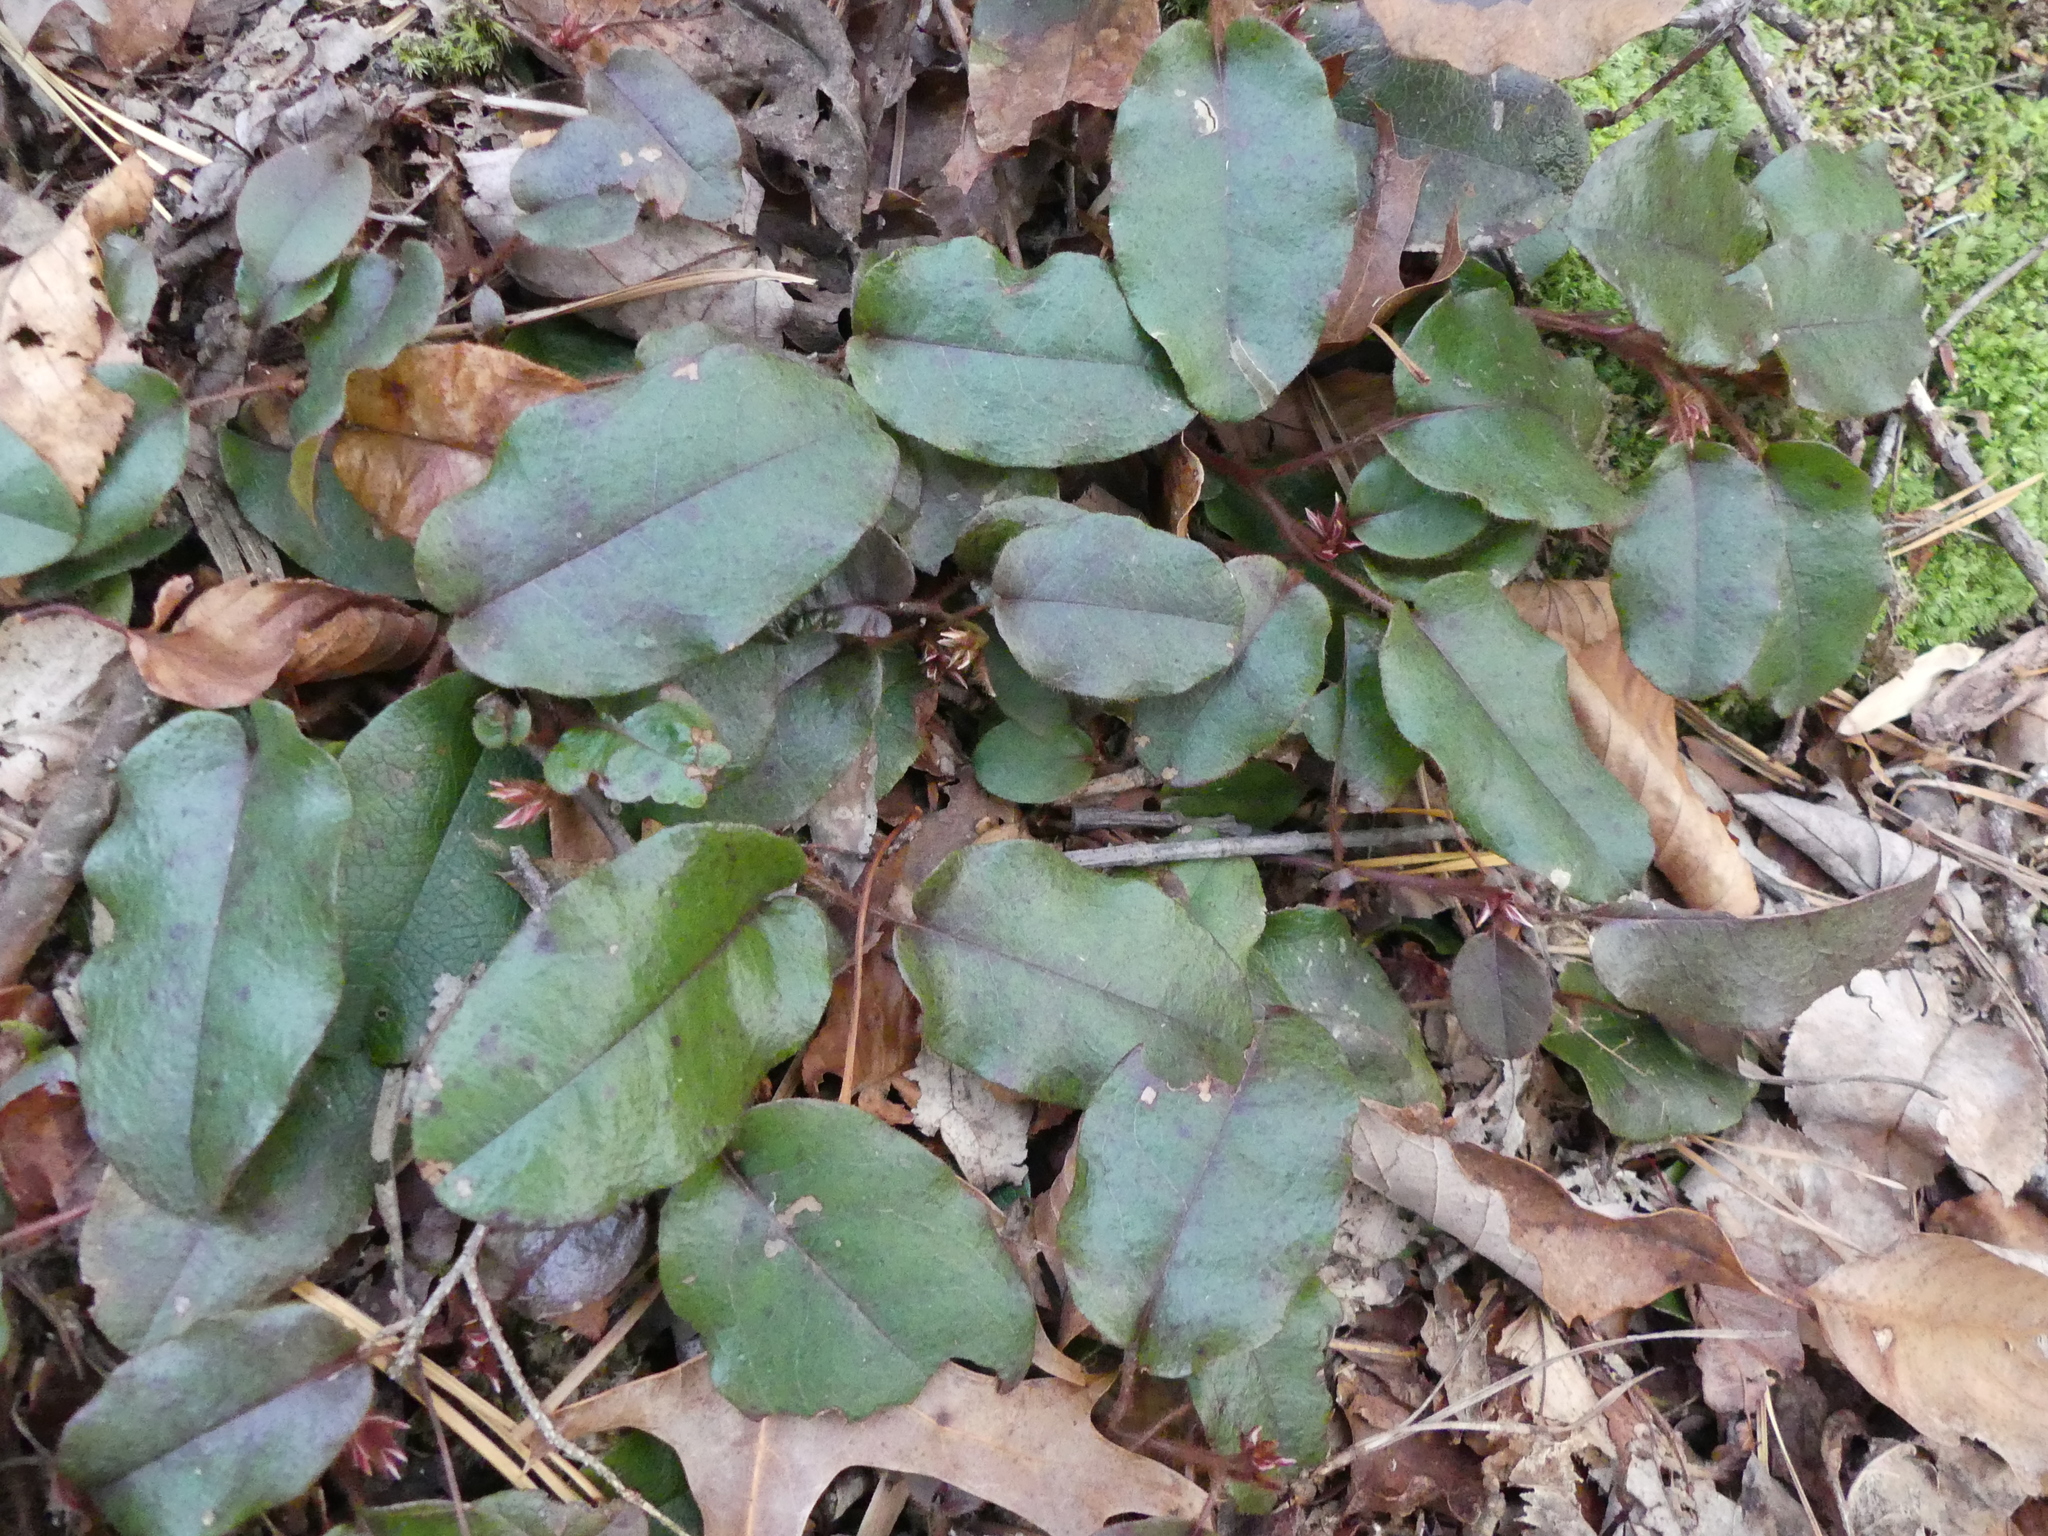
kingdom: Plantae
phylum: Tracheophyta
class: Magnoliopsida
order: Ericales
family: Ericaceae
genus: Epigaea
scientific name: Epigaea repens
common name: Gravelroot
